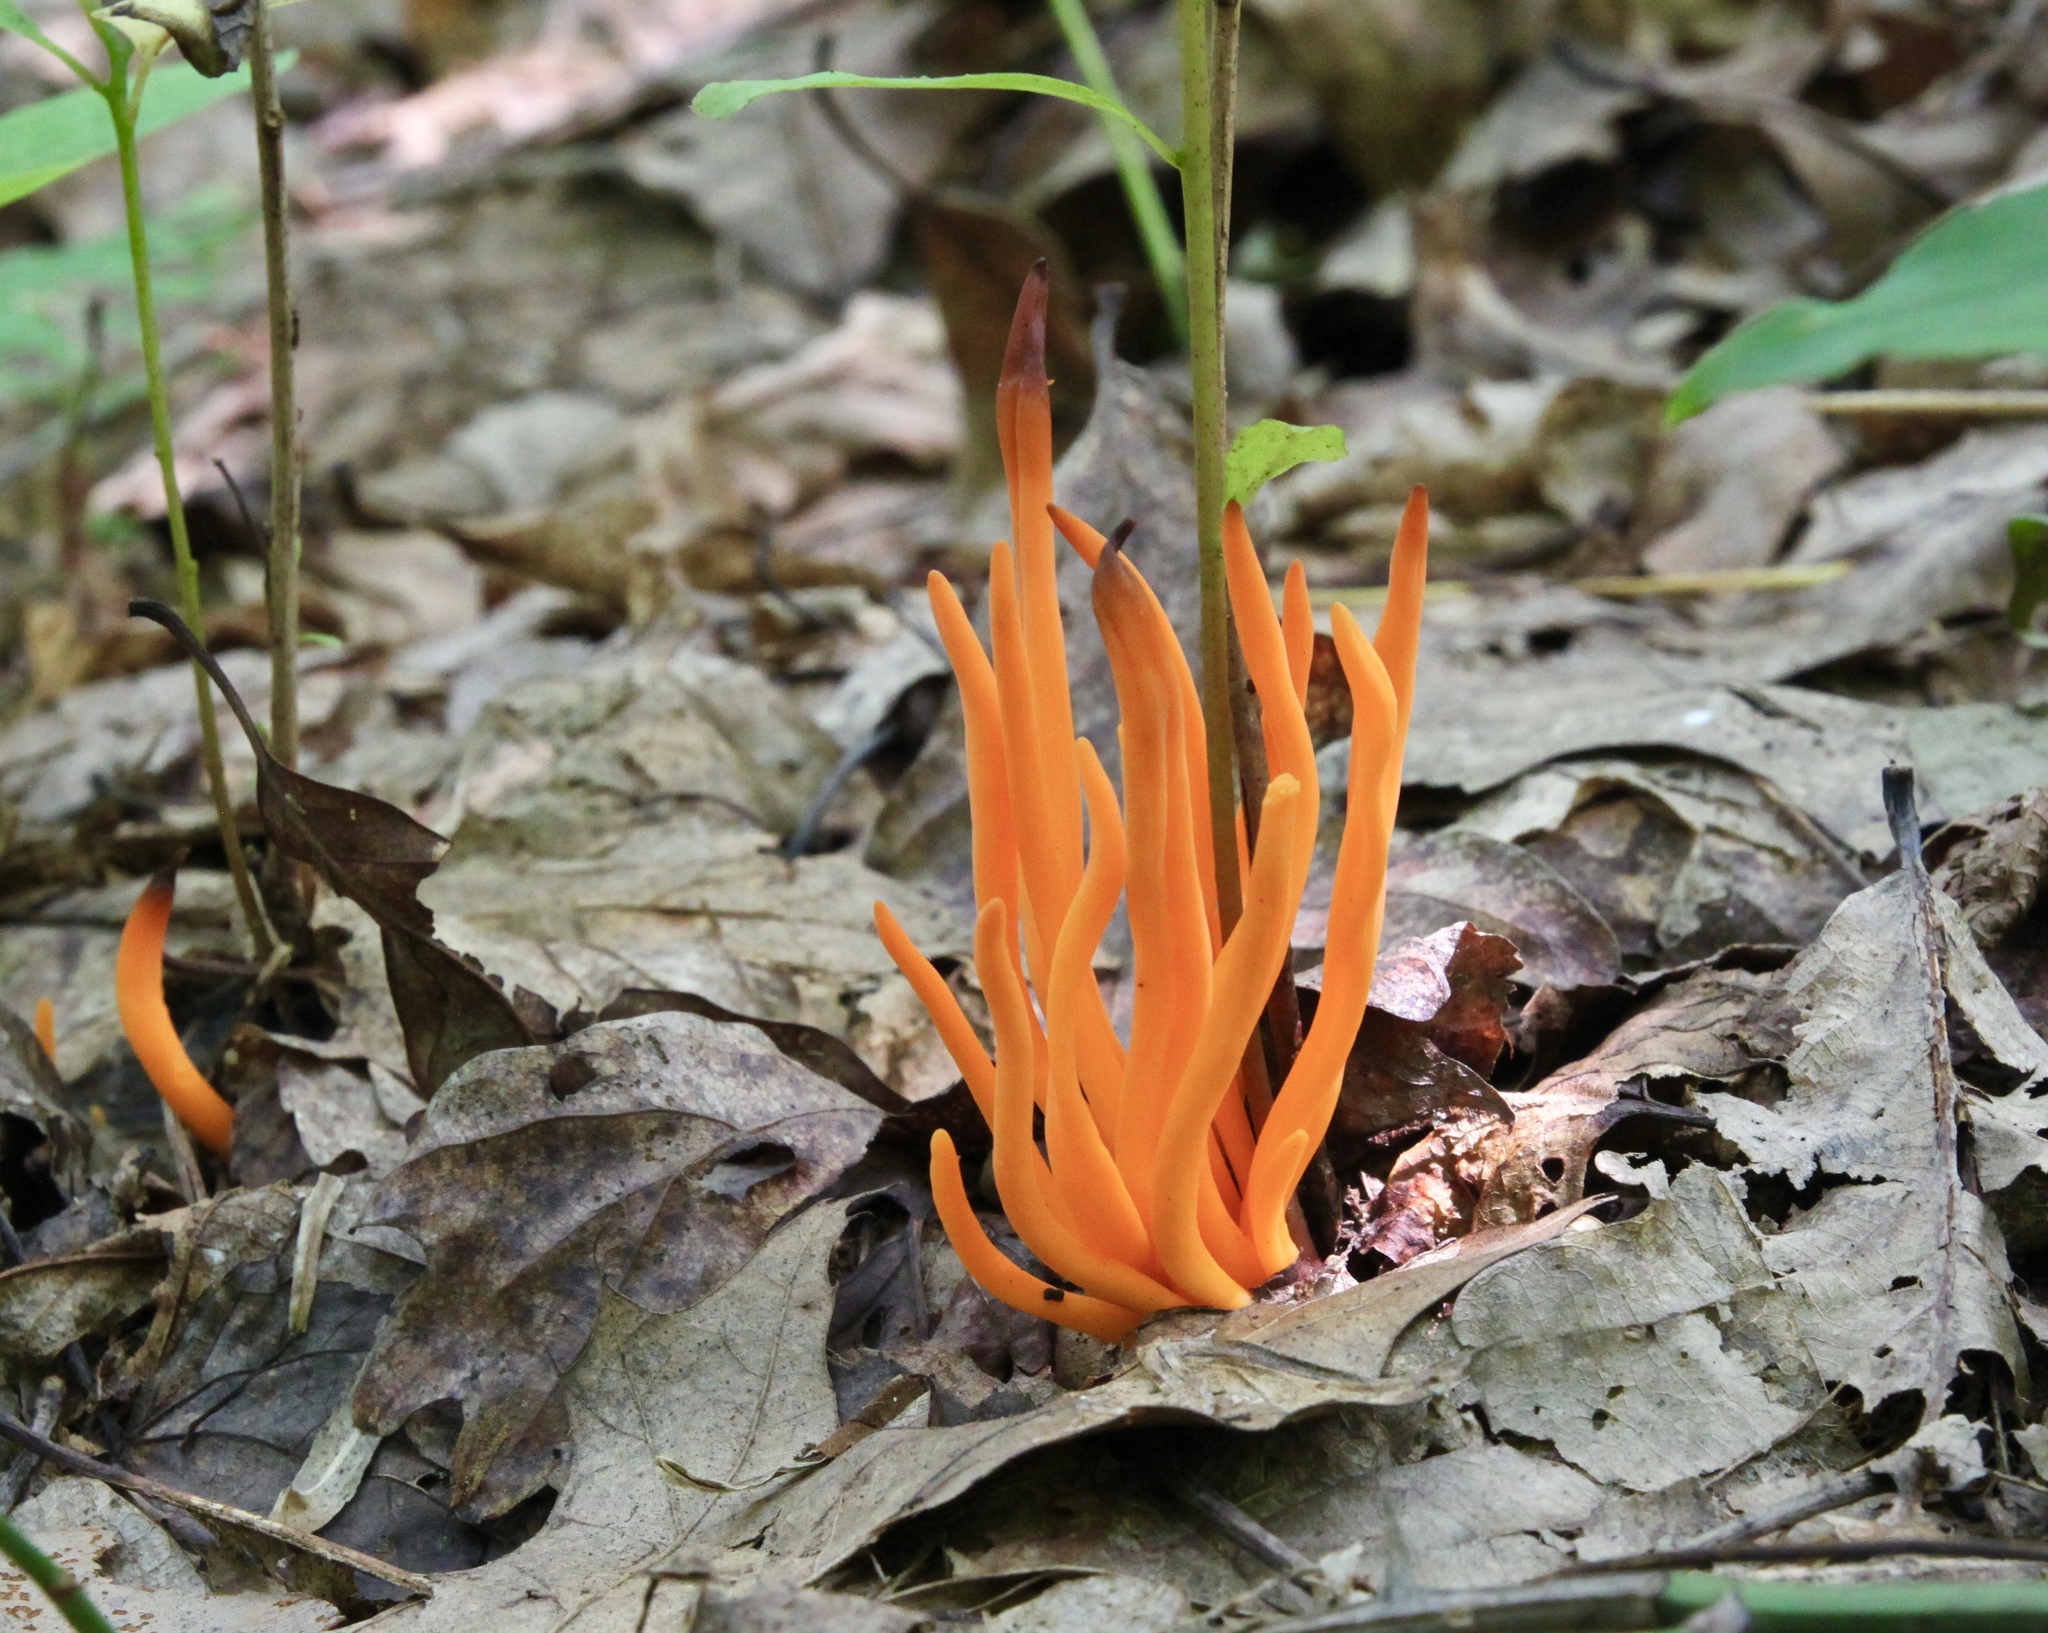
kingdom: Fungi
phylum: Basidiomycota
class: Agaricomycetes
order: Agaricales
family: Clavariaceae
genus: Clavulinopsis
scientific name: Clavulinopsis aurantiocinnabarina
